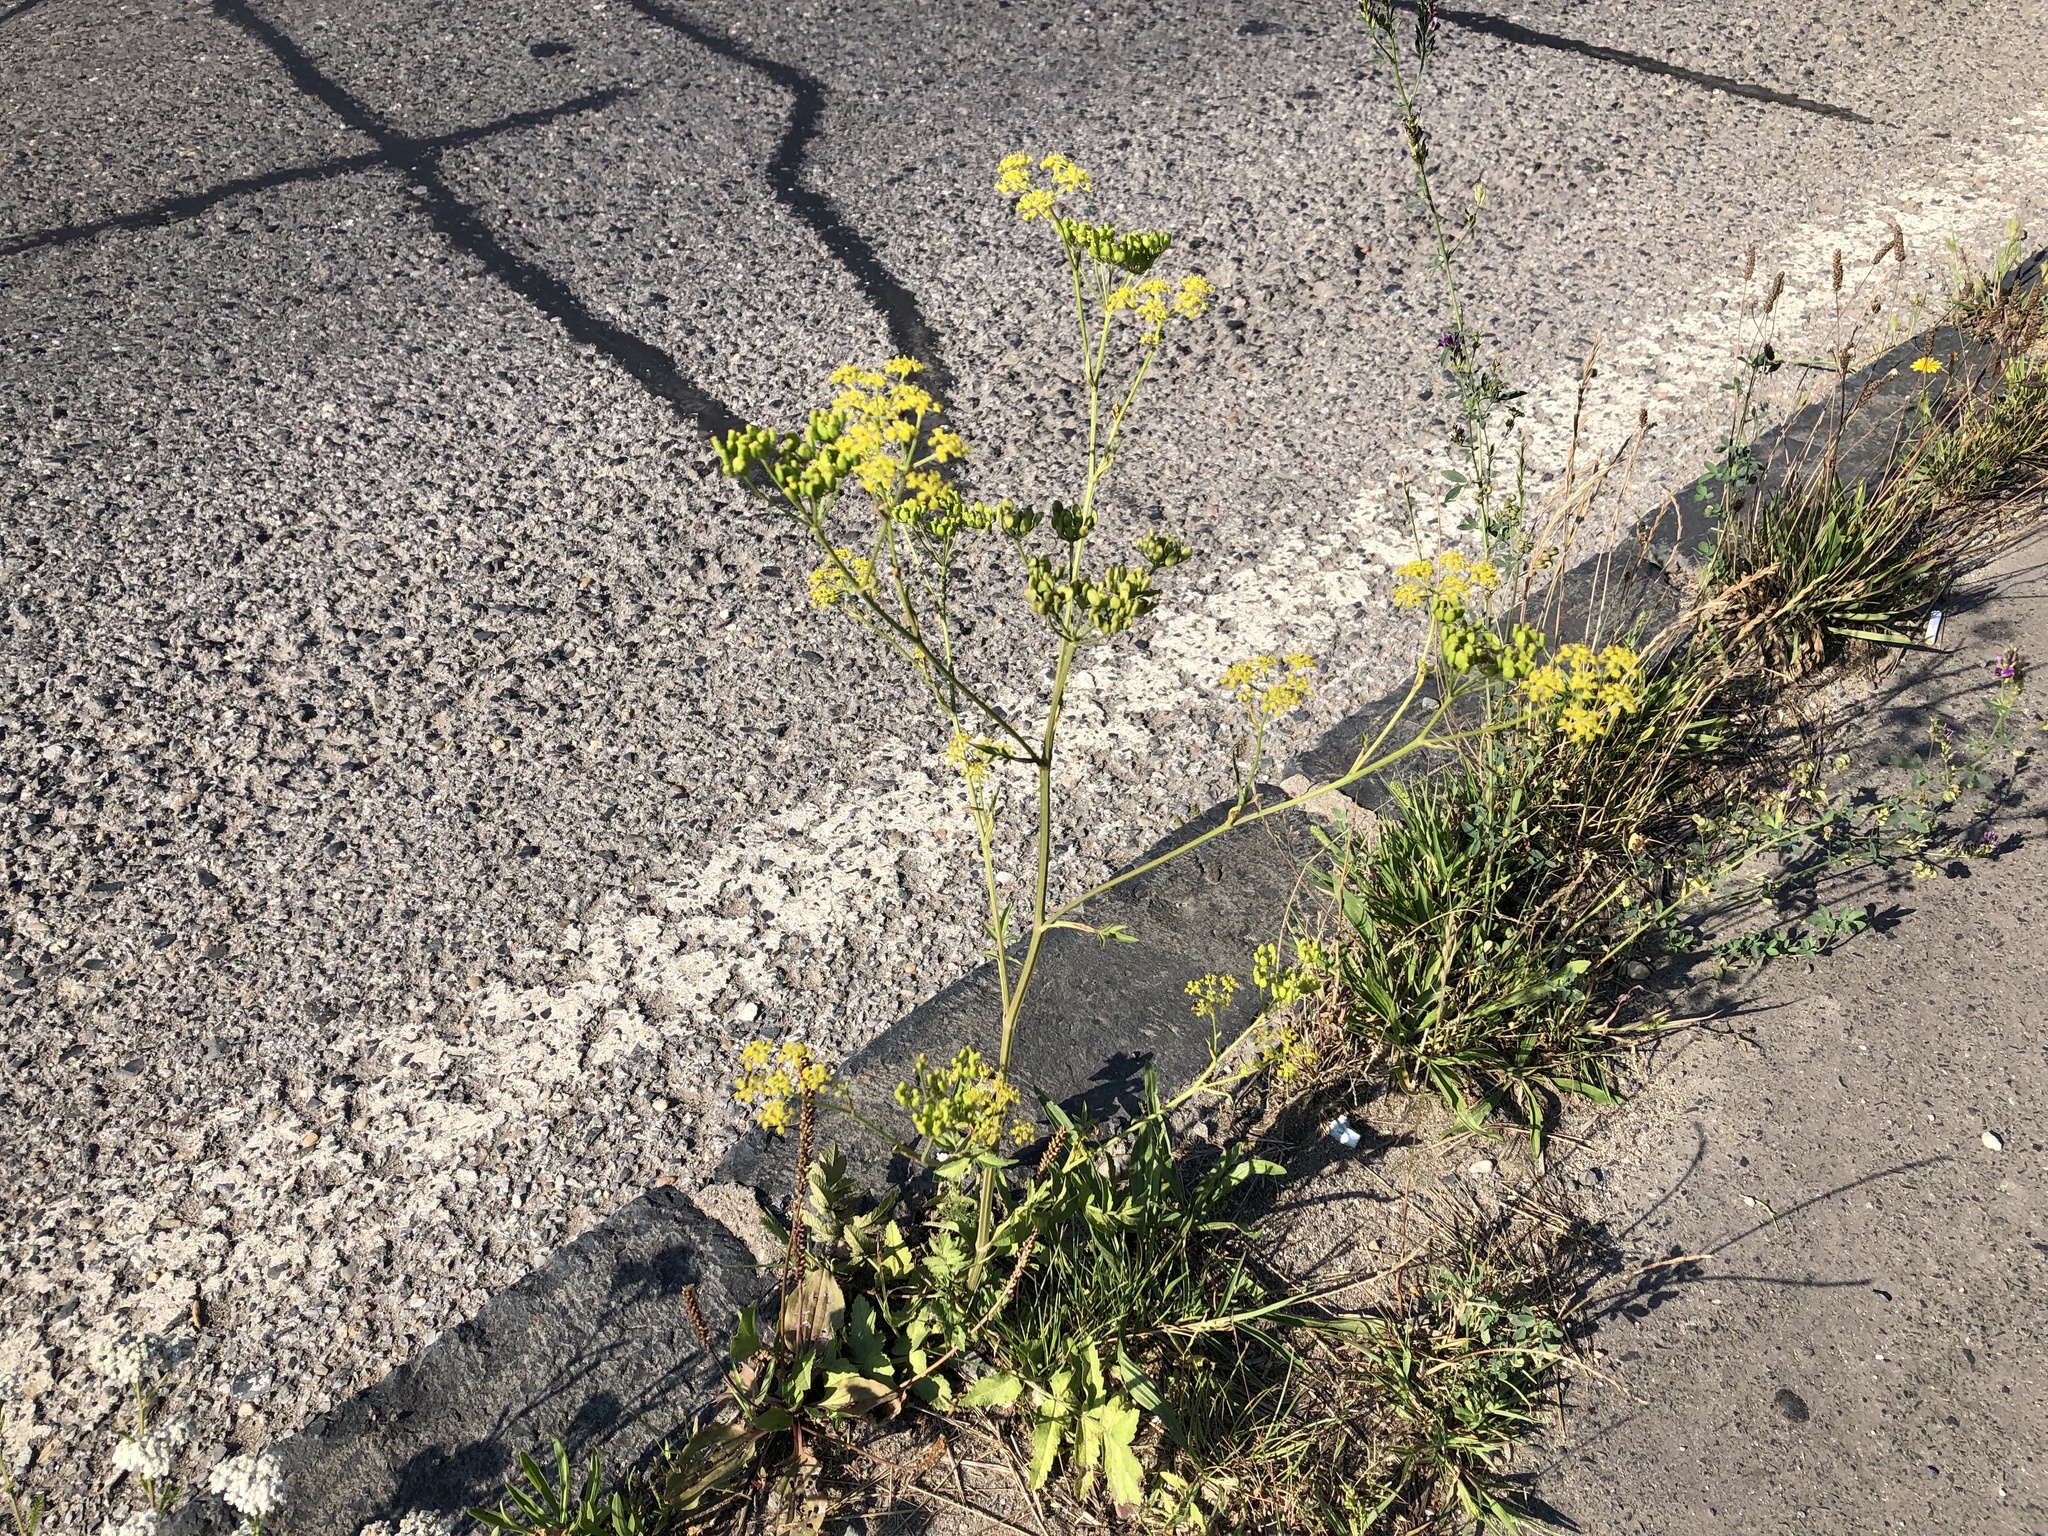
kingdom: Plantae
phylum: Tracheophyta
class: Magnoliopsida
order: Apiales
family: Apiaceae
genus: Pastinaca
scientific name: Pastinaca sativa
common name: Wild parsnip
